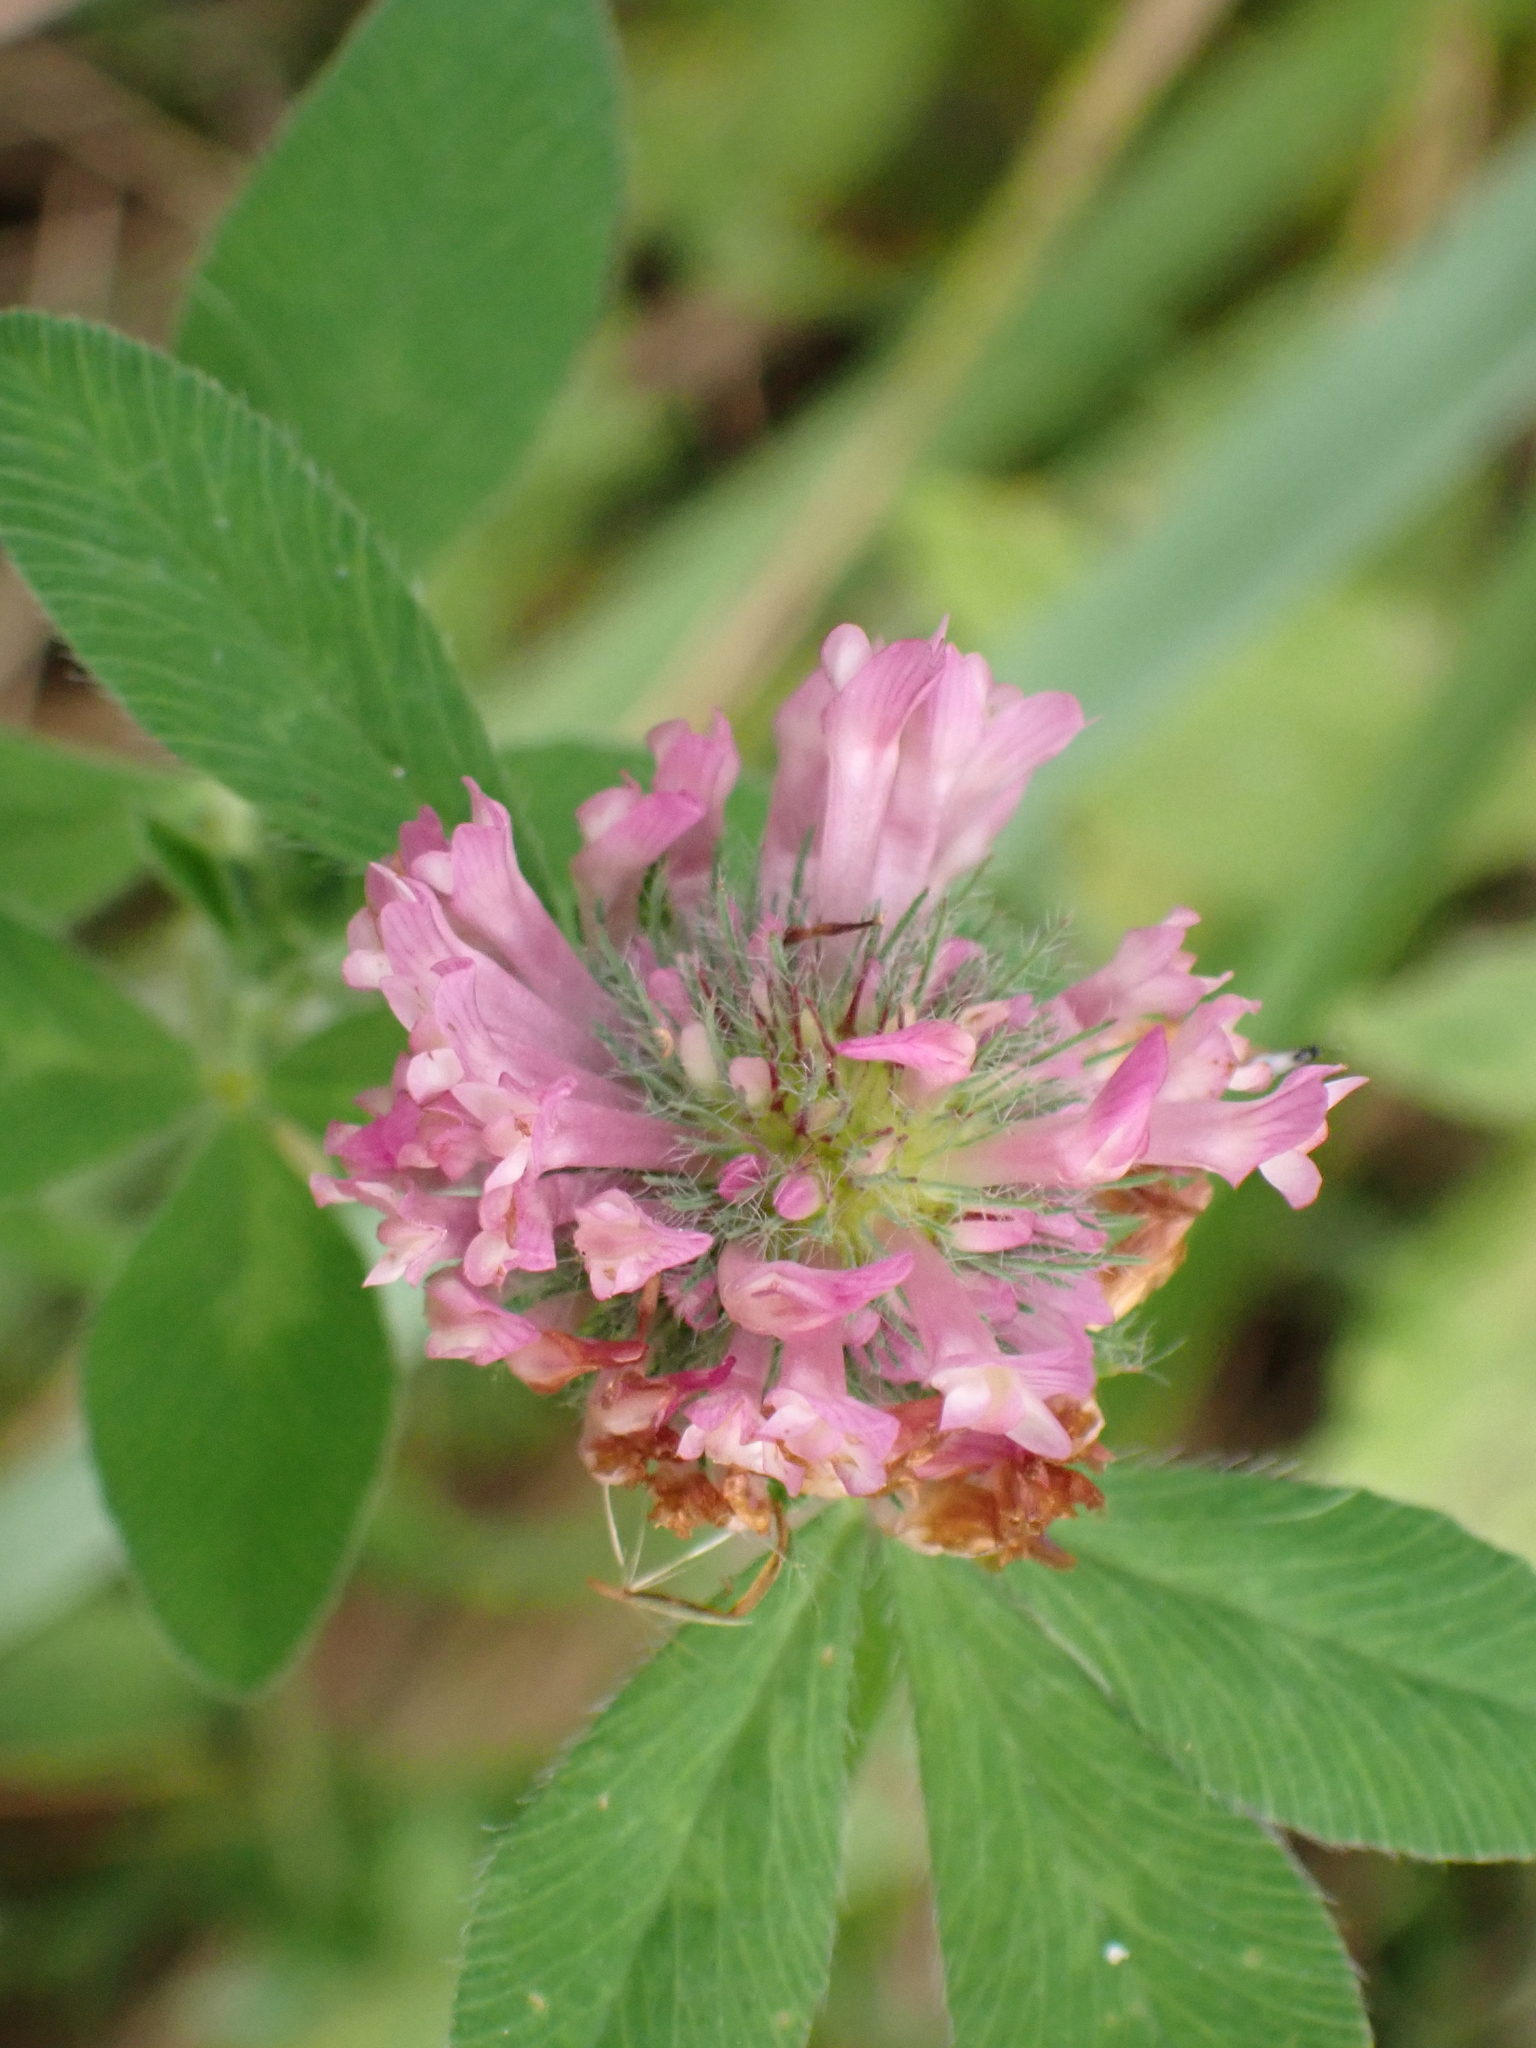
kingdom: Plantae
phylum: Tracheophyta
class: Magnoliopsida
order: Fabales
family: Fabaceae
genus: Trifolium
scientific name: Trifolium pratense
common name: Red clover
